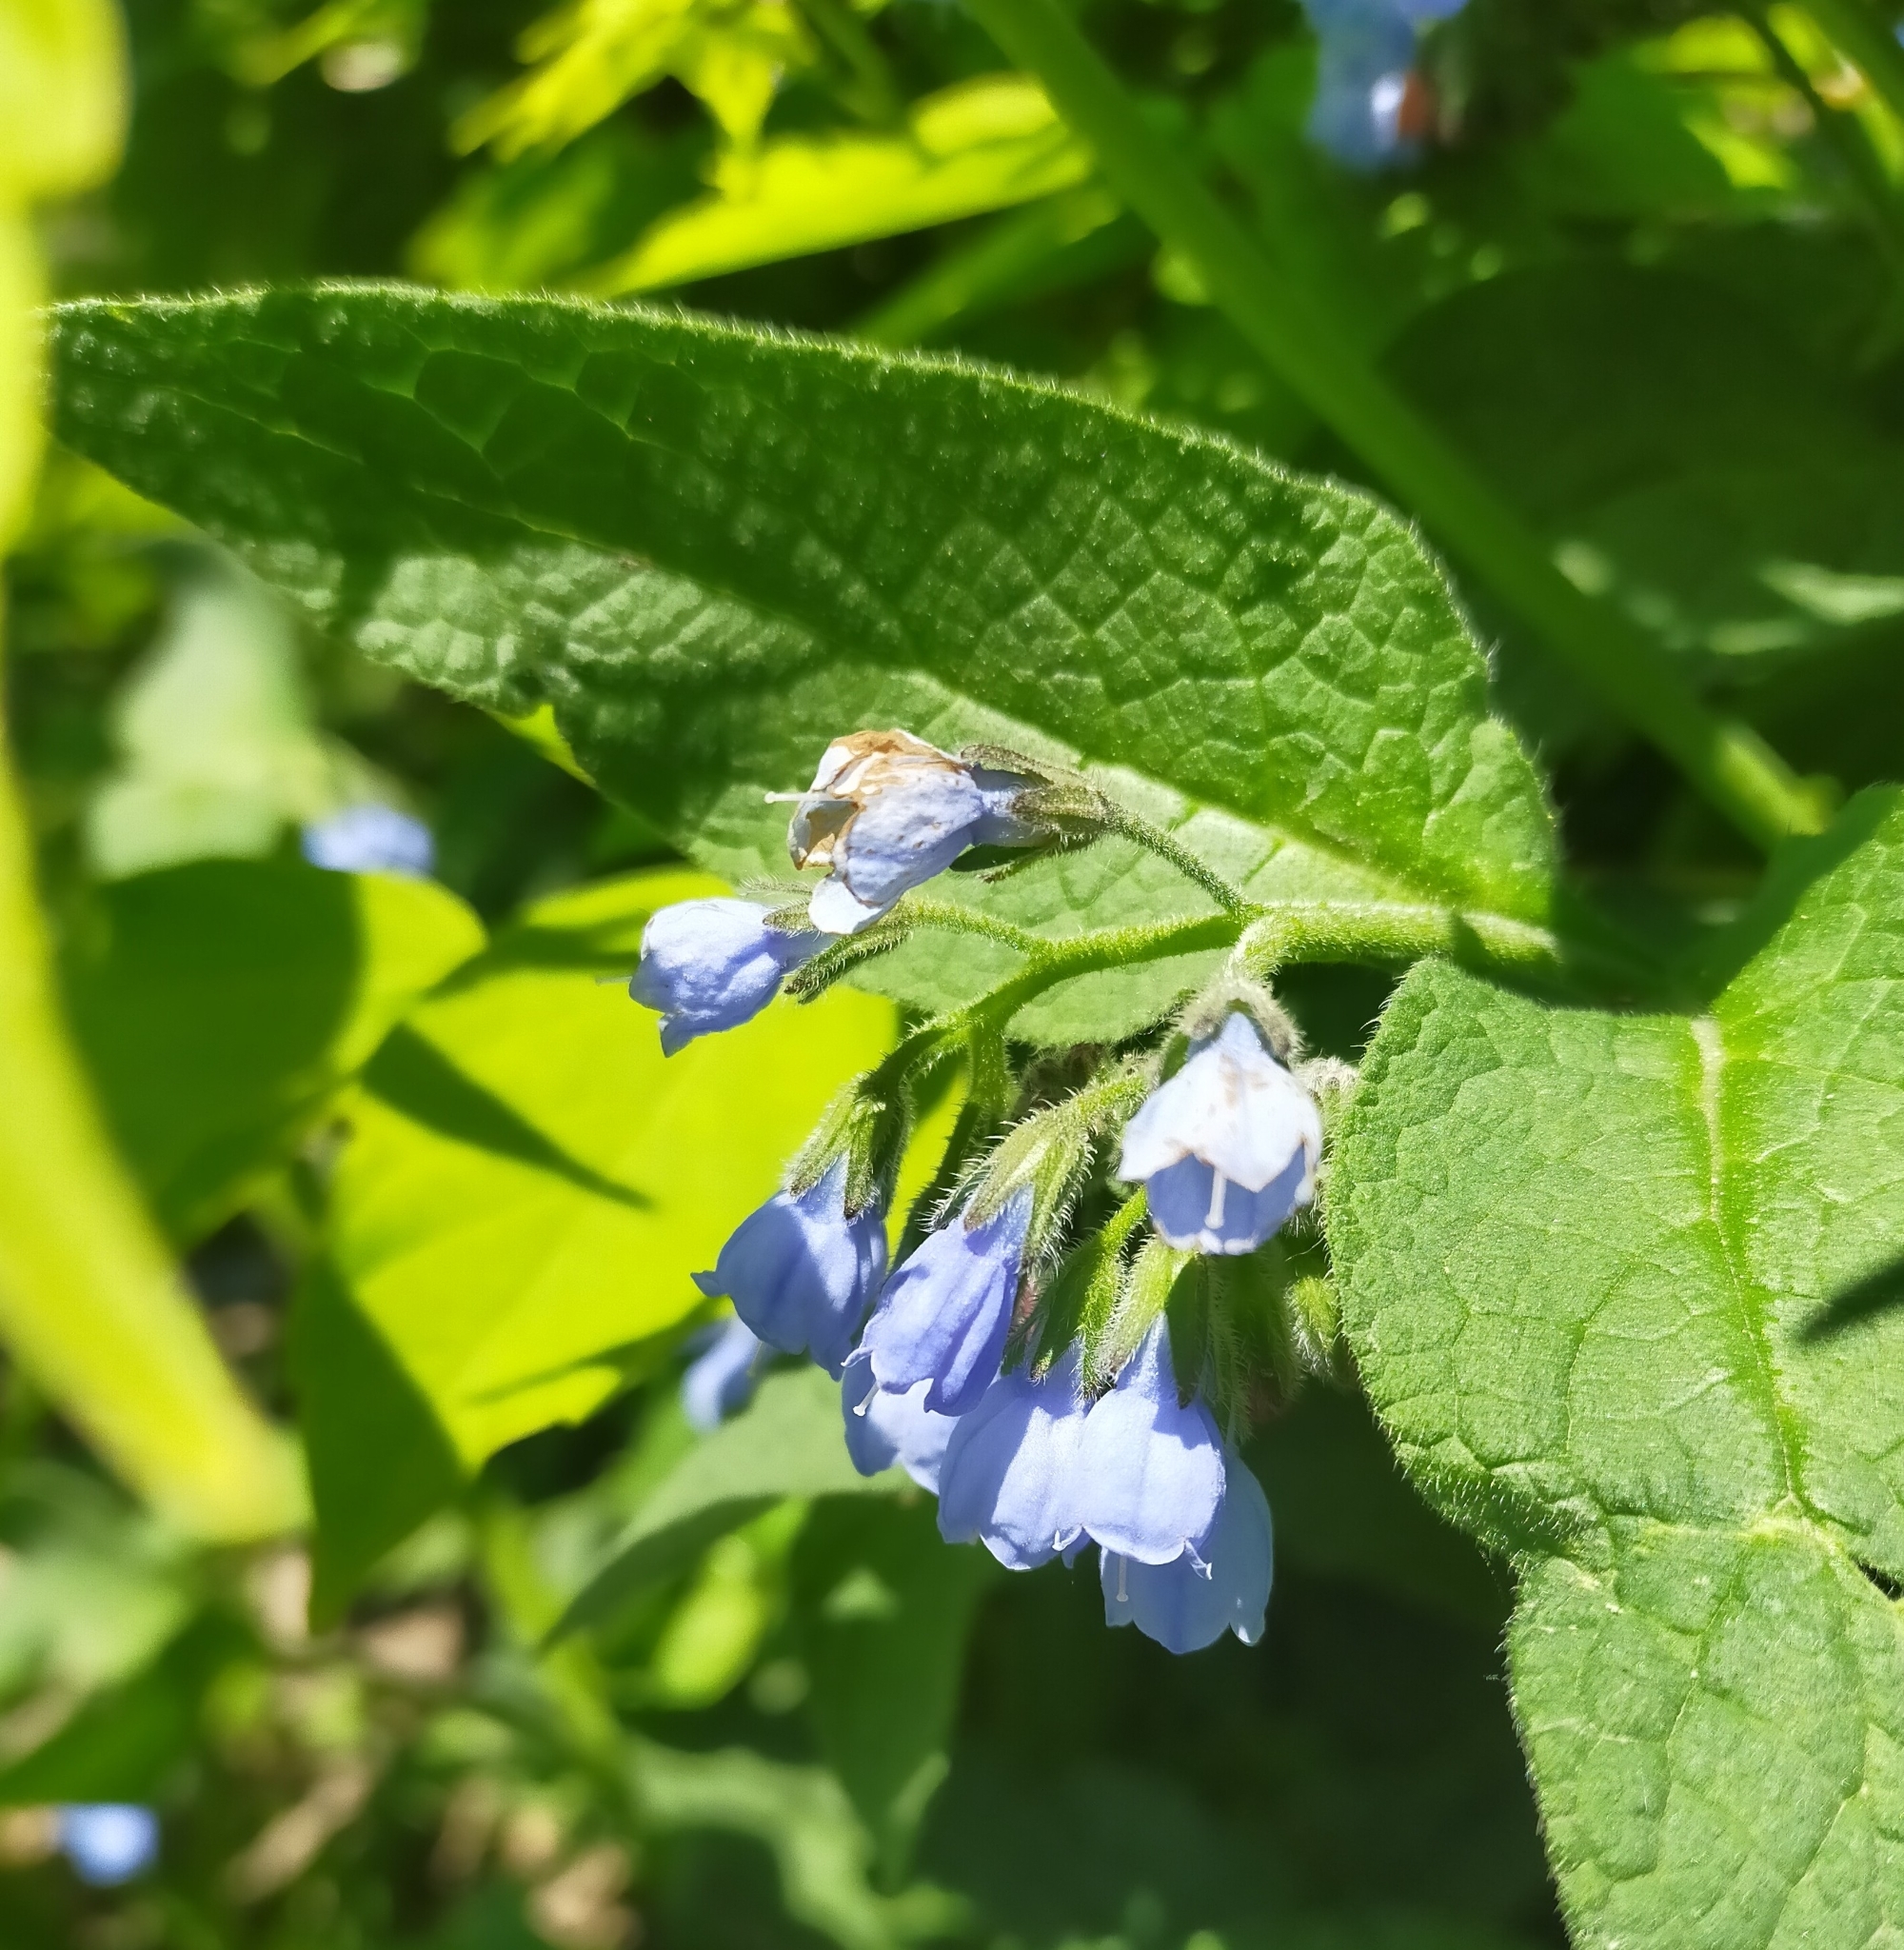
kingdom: Plantae
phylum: Tracheophyta
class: Magnoliopsida
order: Boraginales
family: Boraginaceae
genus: Symphytum
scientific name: Symphytum caucasicum
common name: Caucasian comfrey
